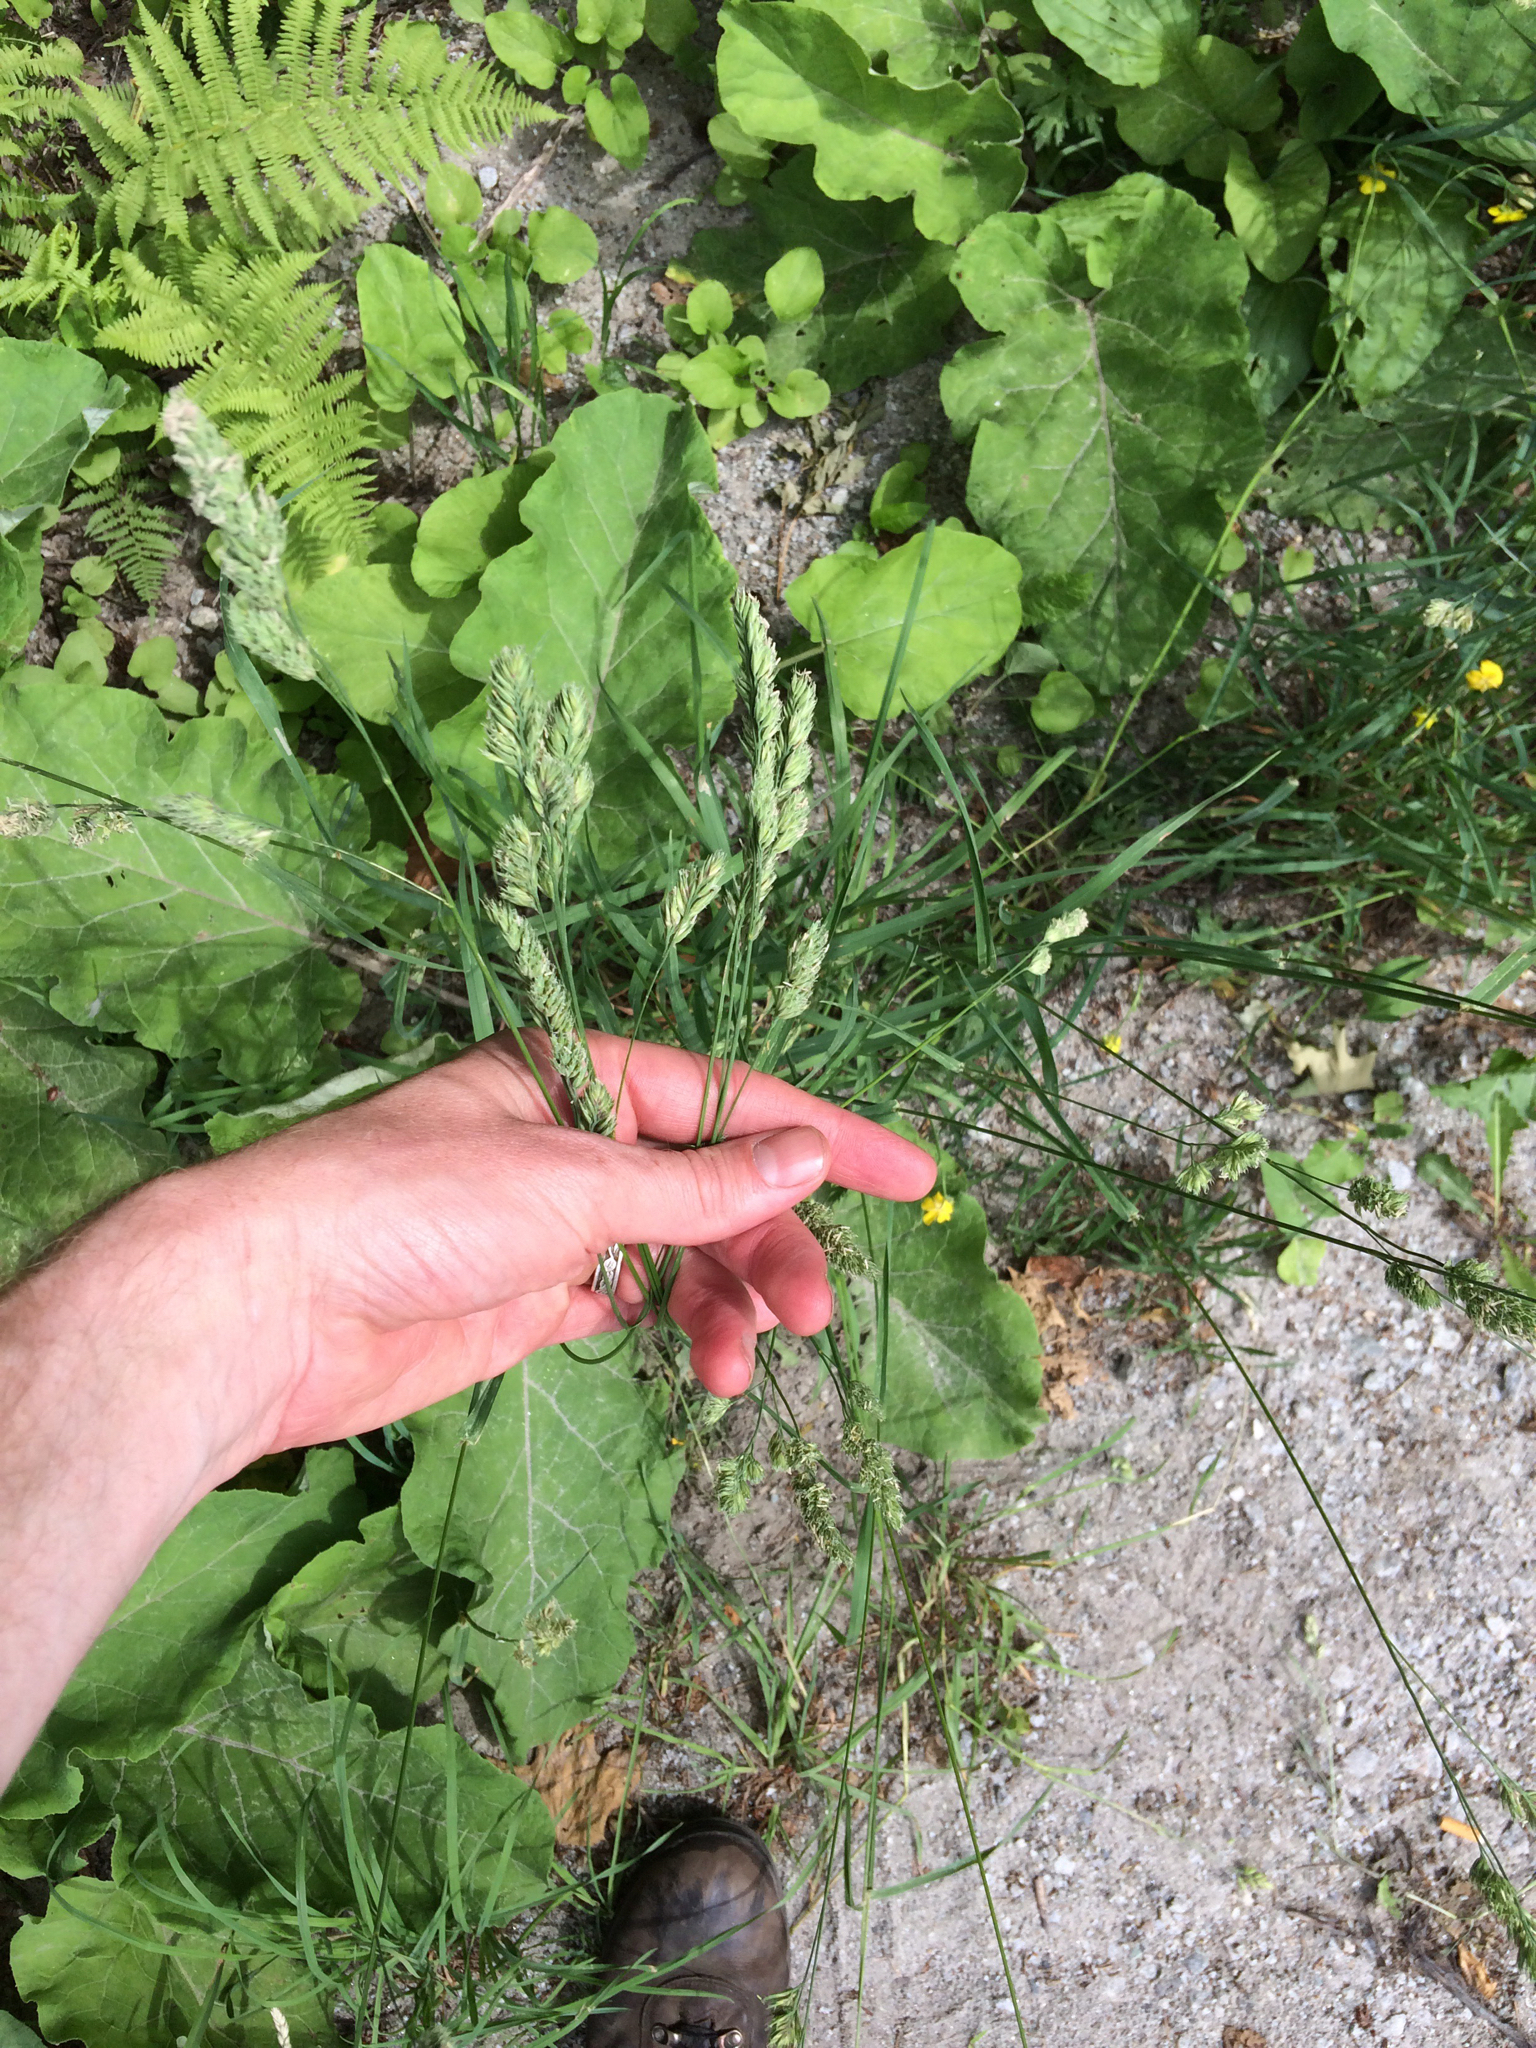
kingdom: Plantae
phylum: Tracheophyta
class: Liliopsida
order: Poales
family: Poaceae
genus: Dactylis
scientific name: Dactylis glomerata
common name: Orchardgrass
